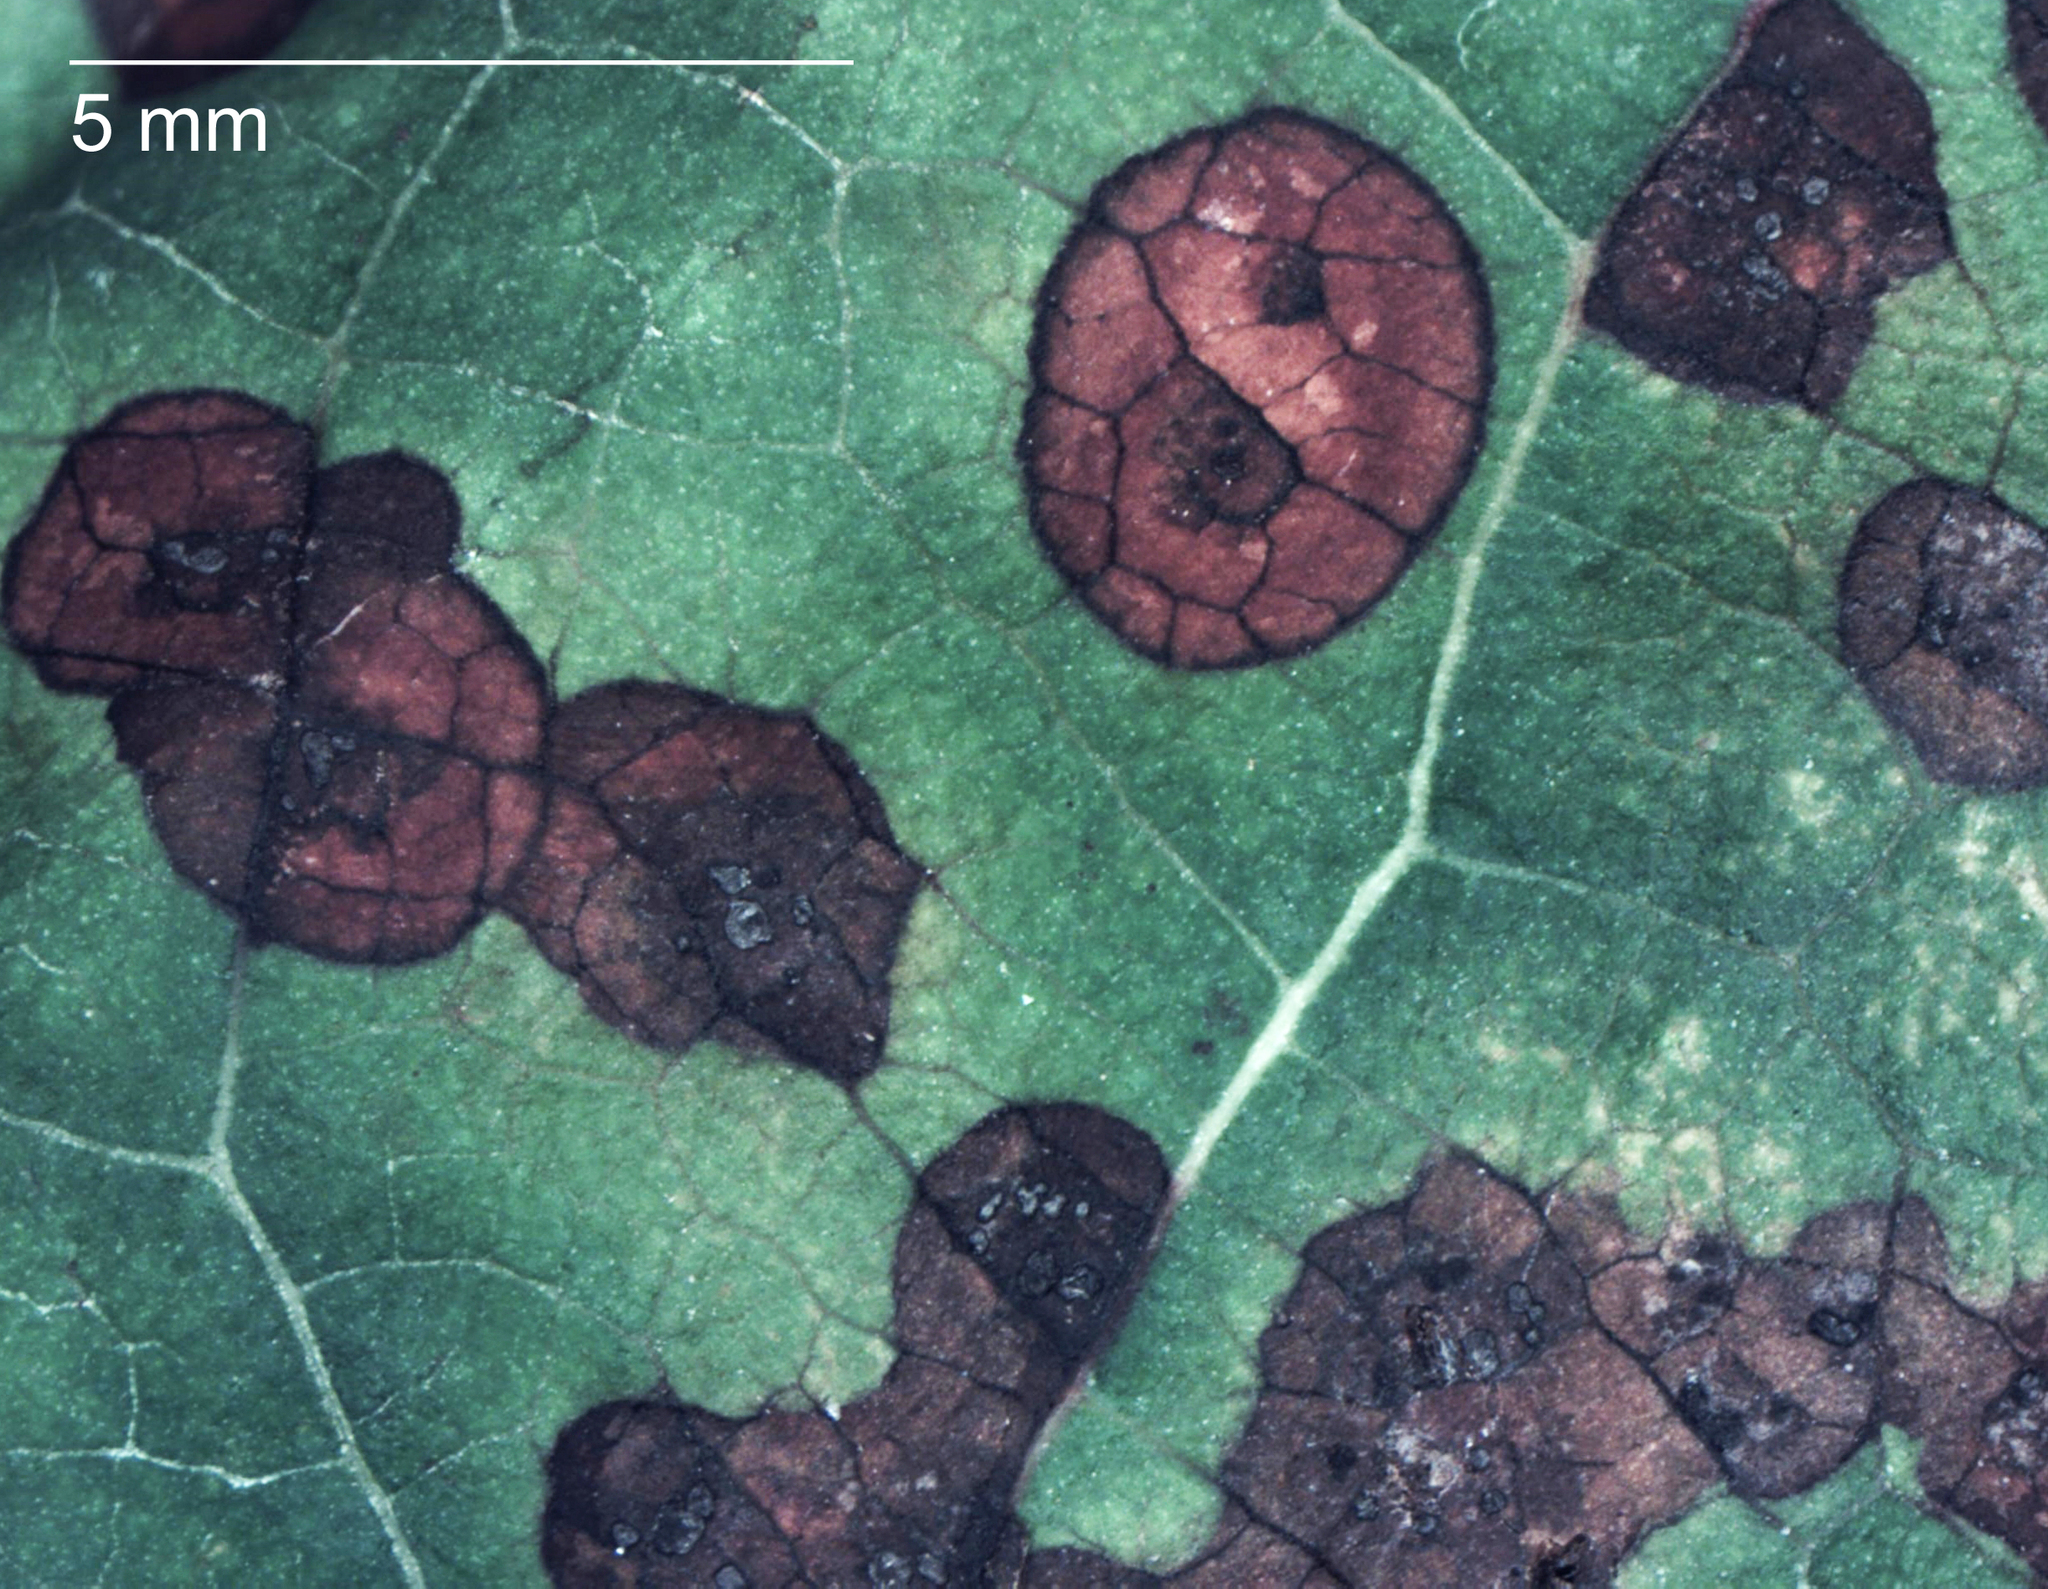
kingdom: Fungi
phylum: Ascomycota
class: Leotiomycetes
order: Helotiales
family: Drepanopezizaceae
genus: Diplocarpon
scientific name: Diplocarpon mespili
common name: Quince leaf blight
